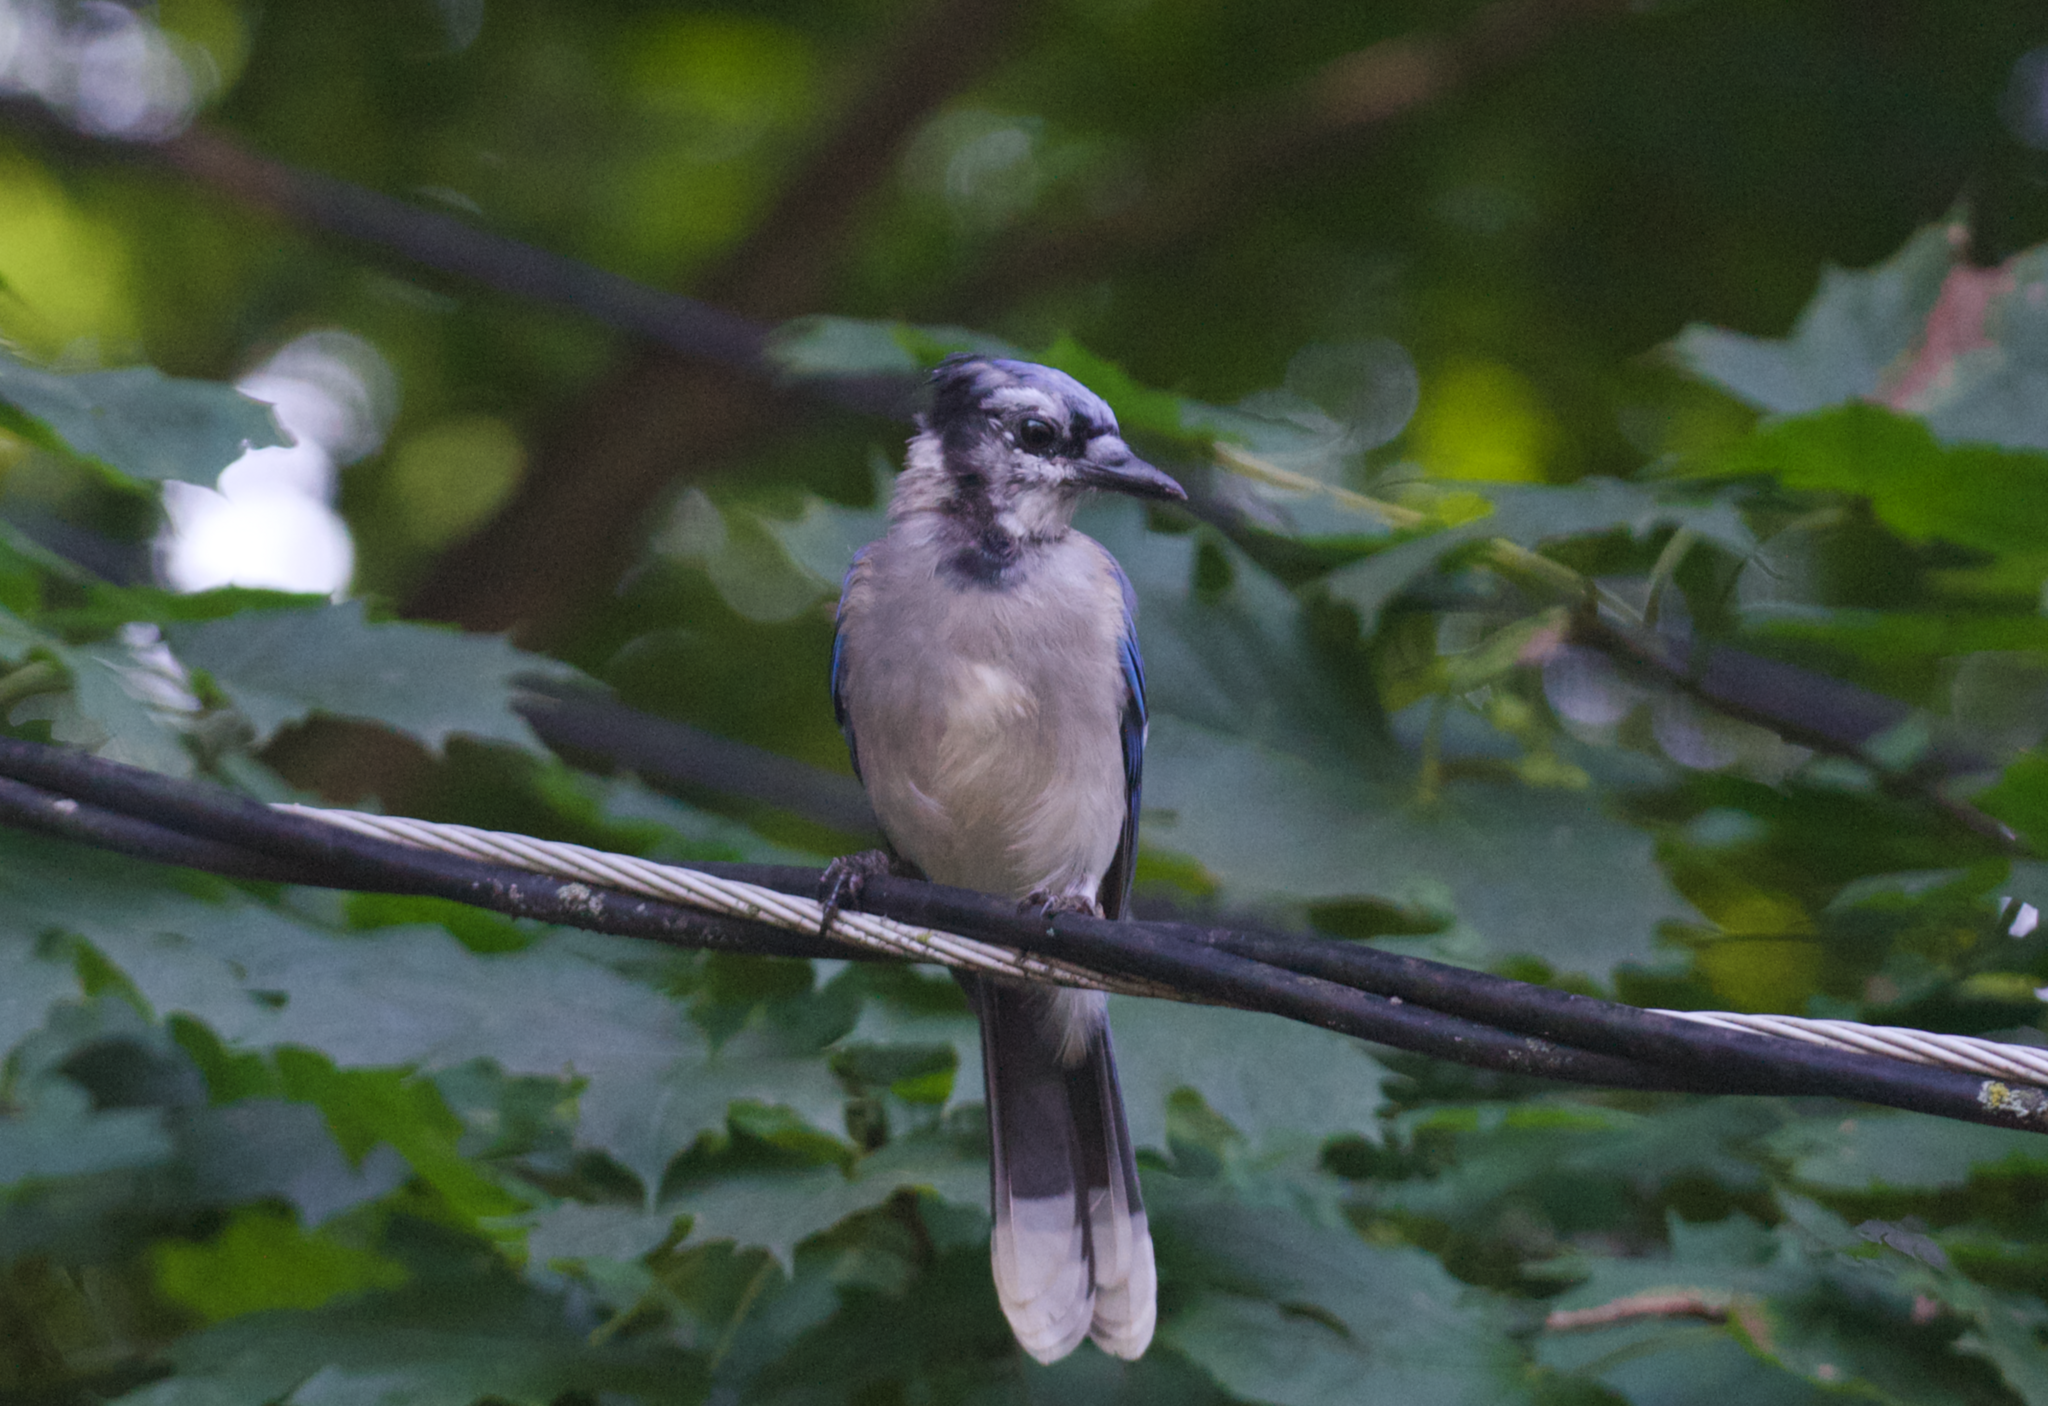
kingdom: Animalia
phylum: Chordata
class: Aves
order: Passeriformes
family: Corvidae
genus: Cyanocitta
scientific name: Cyanocitta cristata
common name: Blue jay
